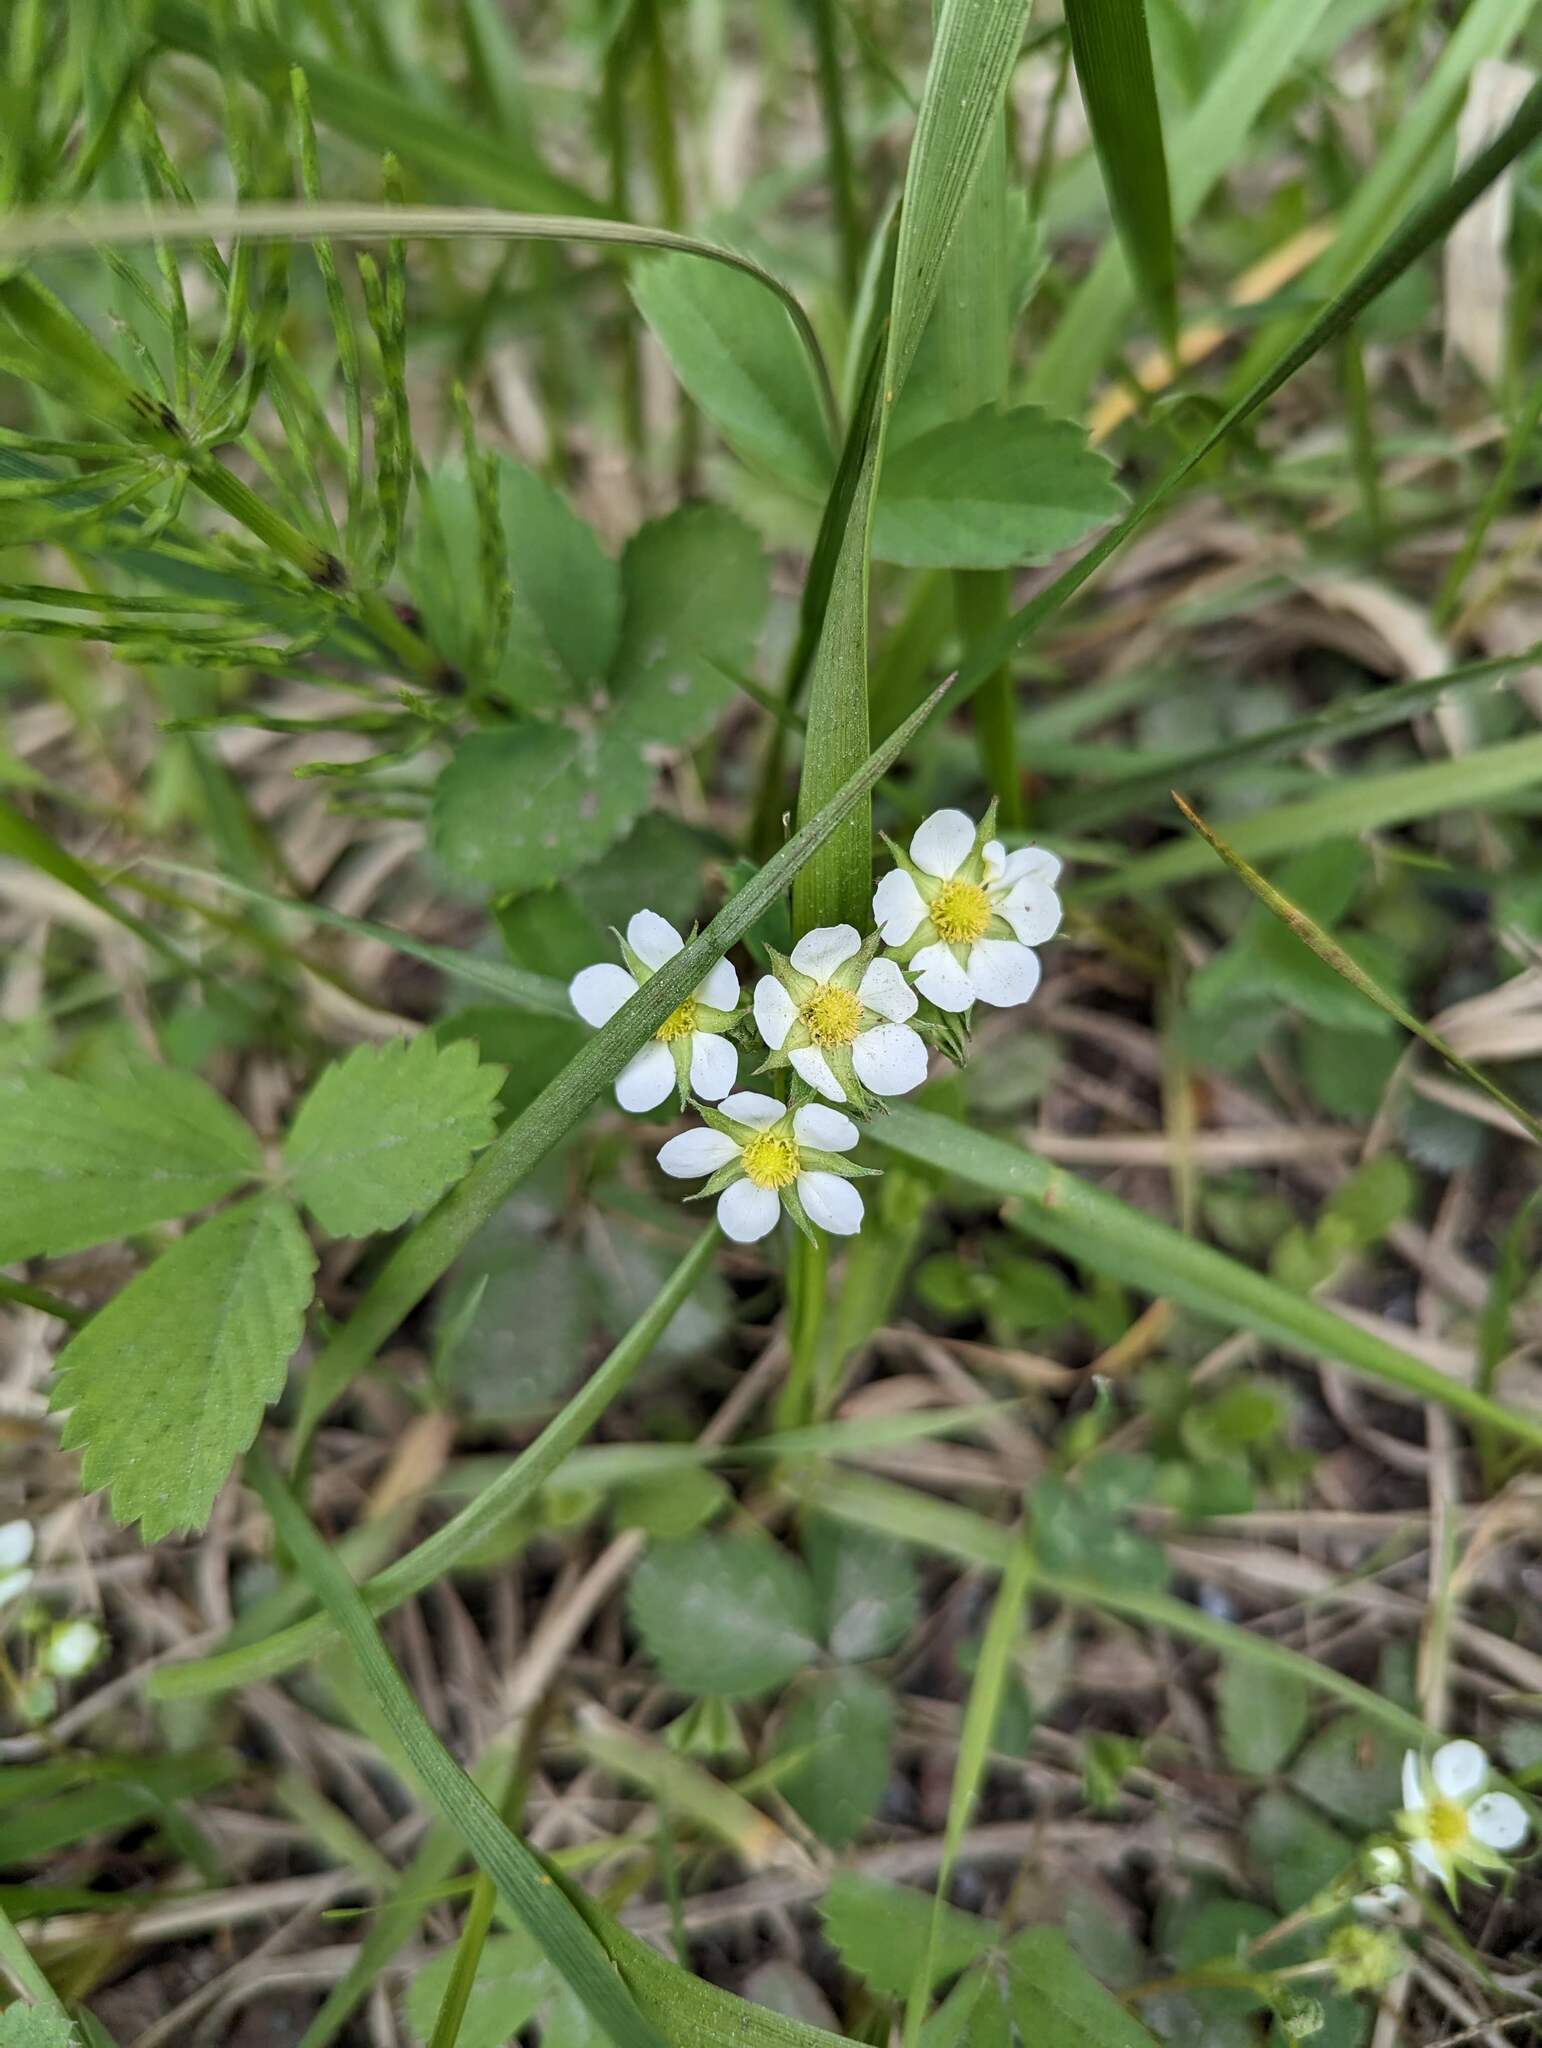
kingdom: Plantae
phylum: Tracheophyta
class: Magnoliopsida
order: Rosales
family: Rosaceae
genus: Fragaria
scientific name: Fragaria virginiana
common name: Thickleaved wild strawberry
